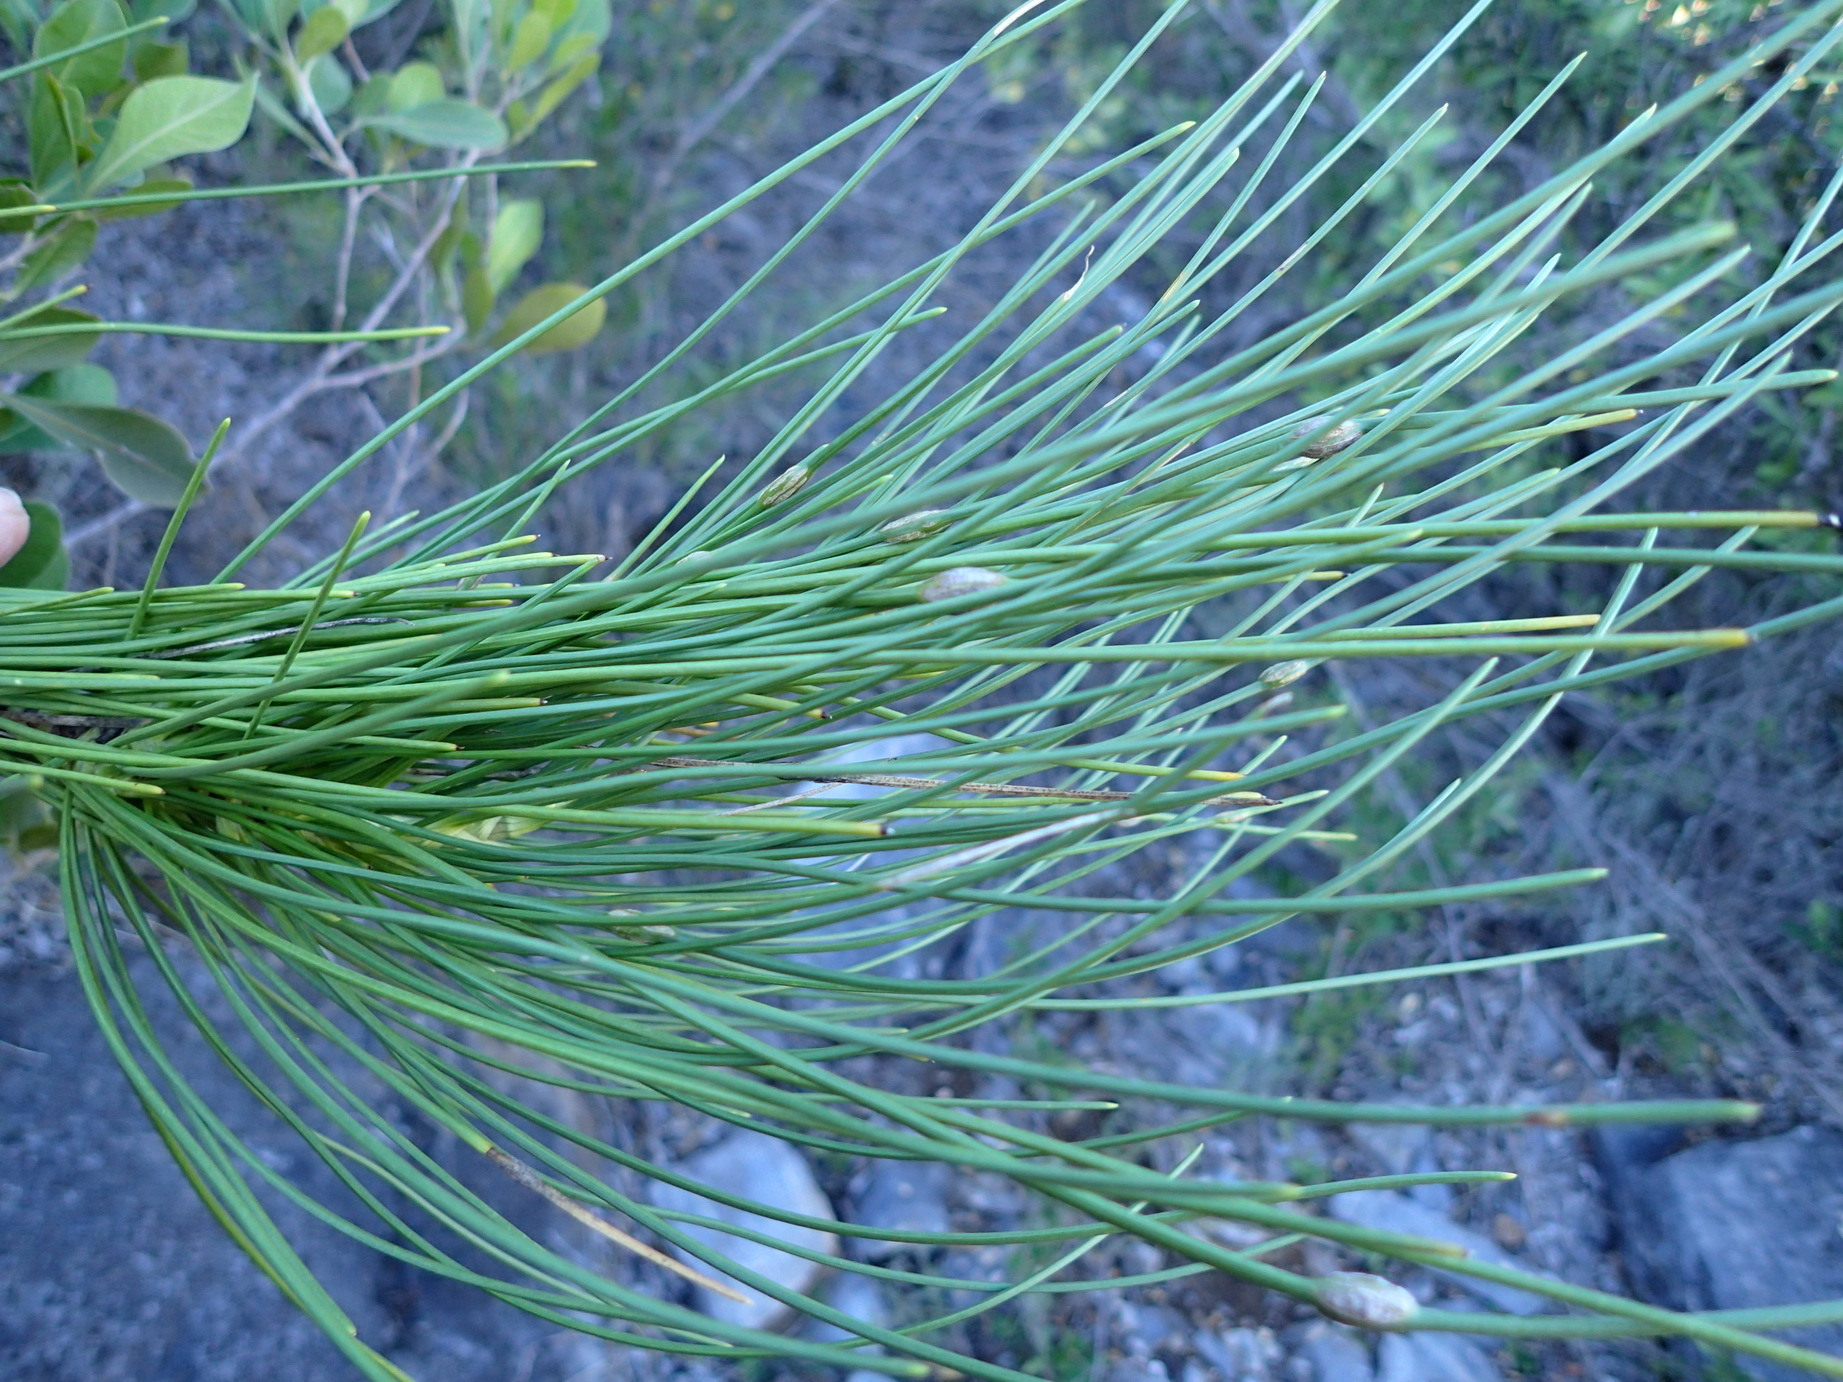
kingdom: Plantae
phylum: Tracheophyta
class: Magnoliopsida
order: Apiales
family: Apiaceae
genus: Anginon
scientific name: Anginon difforme
